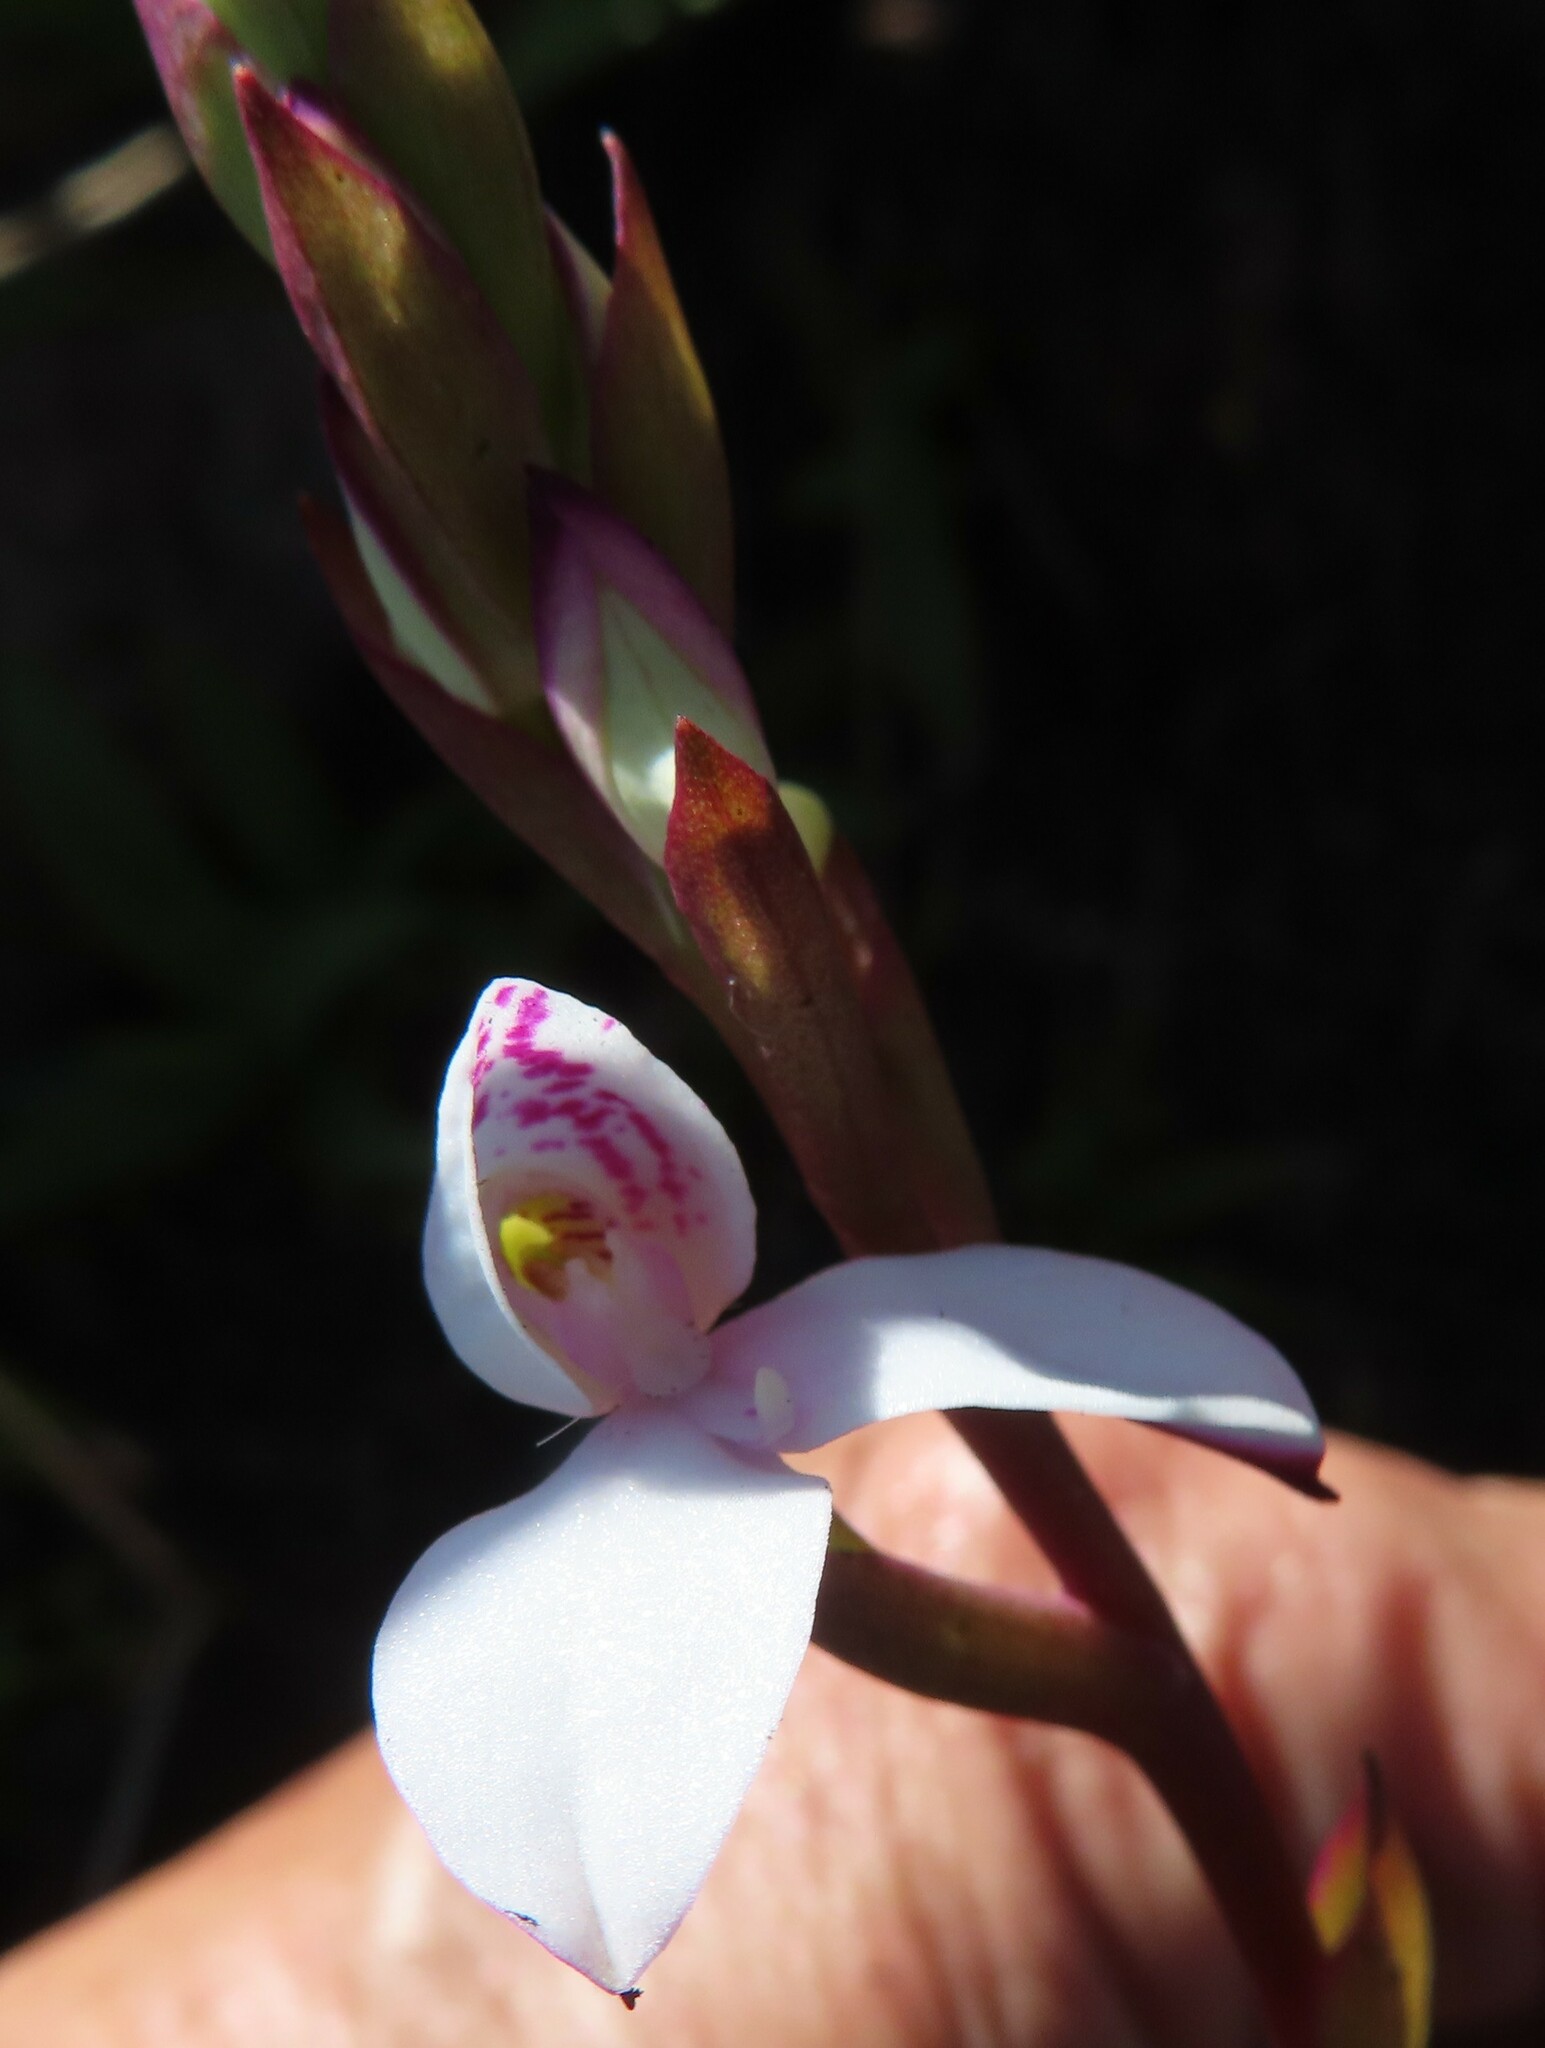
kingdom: Plantae
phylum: Tracheophyta
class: Liliopsida
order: Asparagales
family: Orchidaceae
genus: Disa
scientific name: Disa tripetaloides
